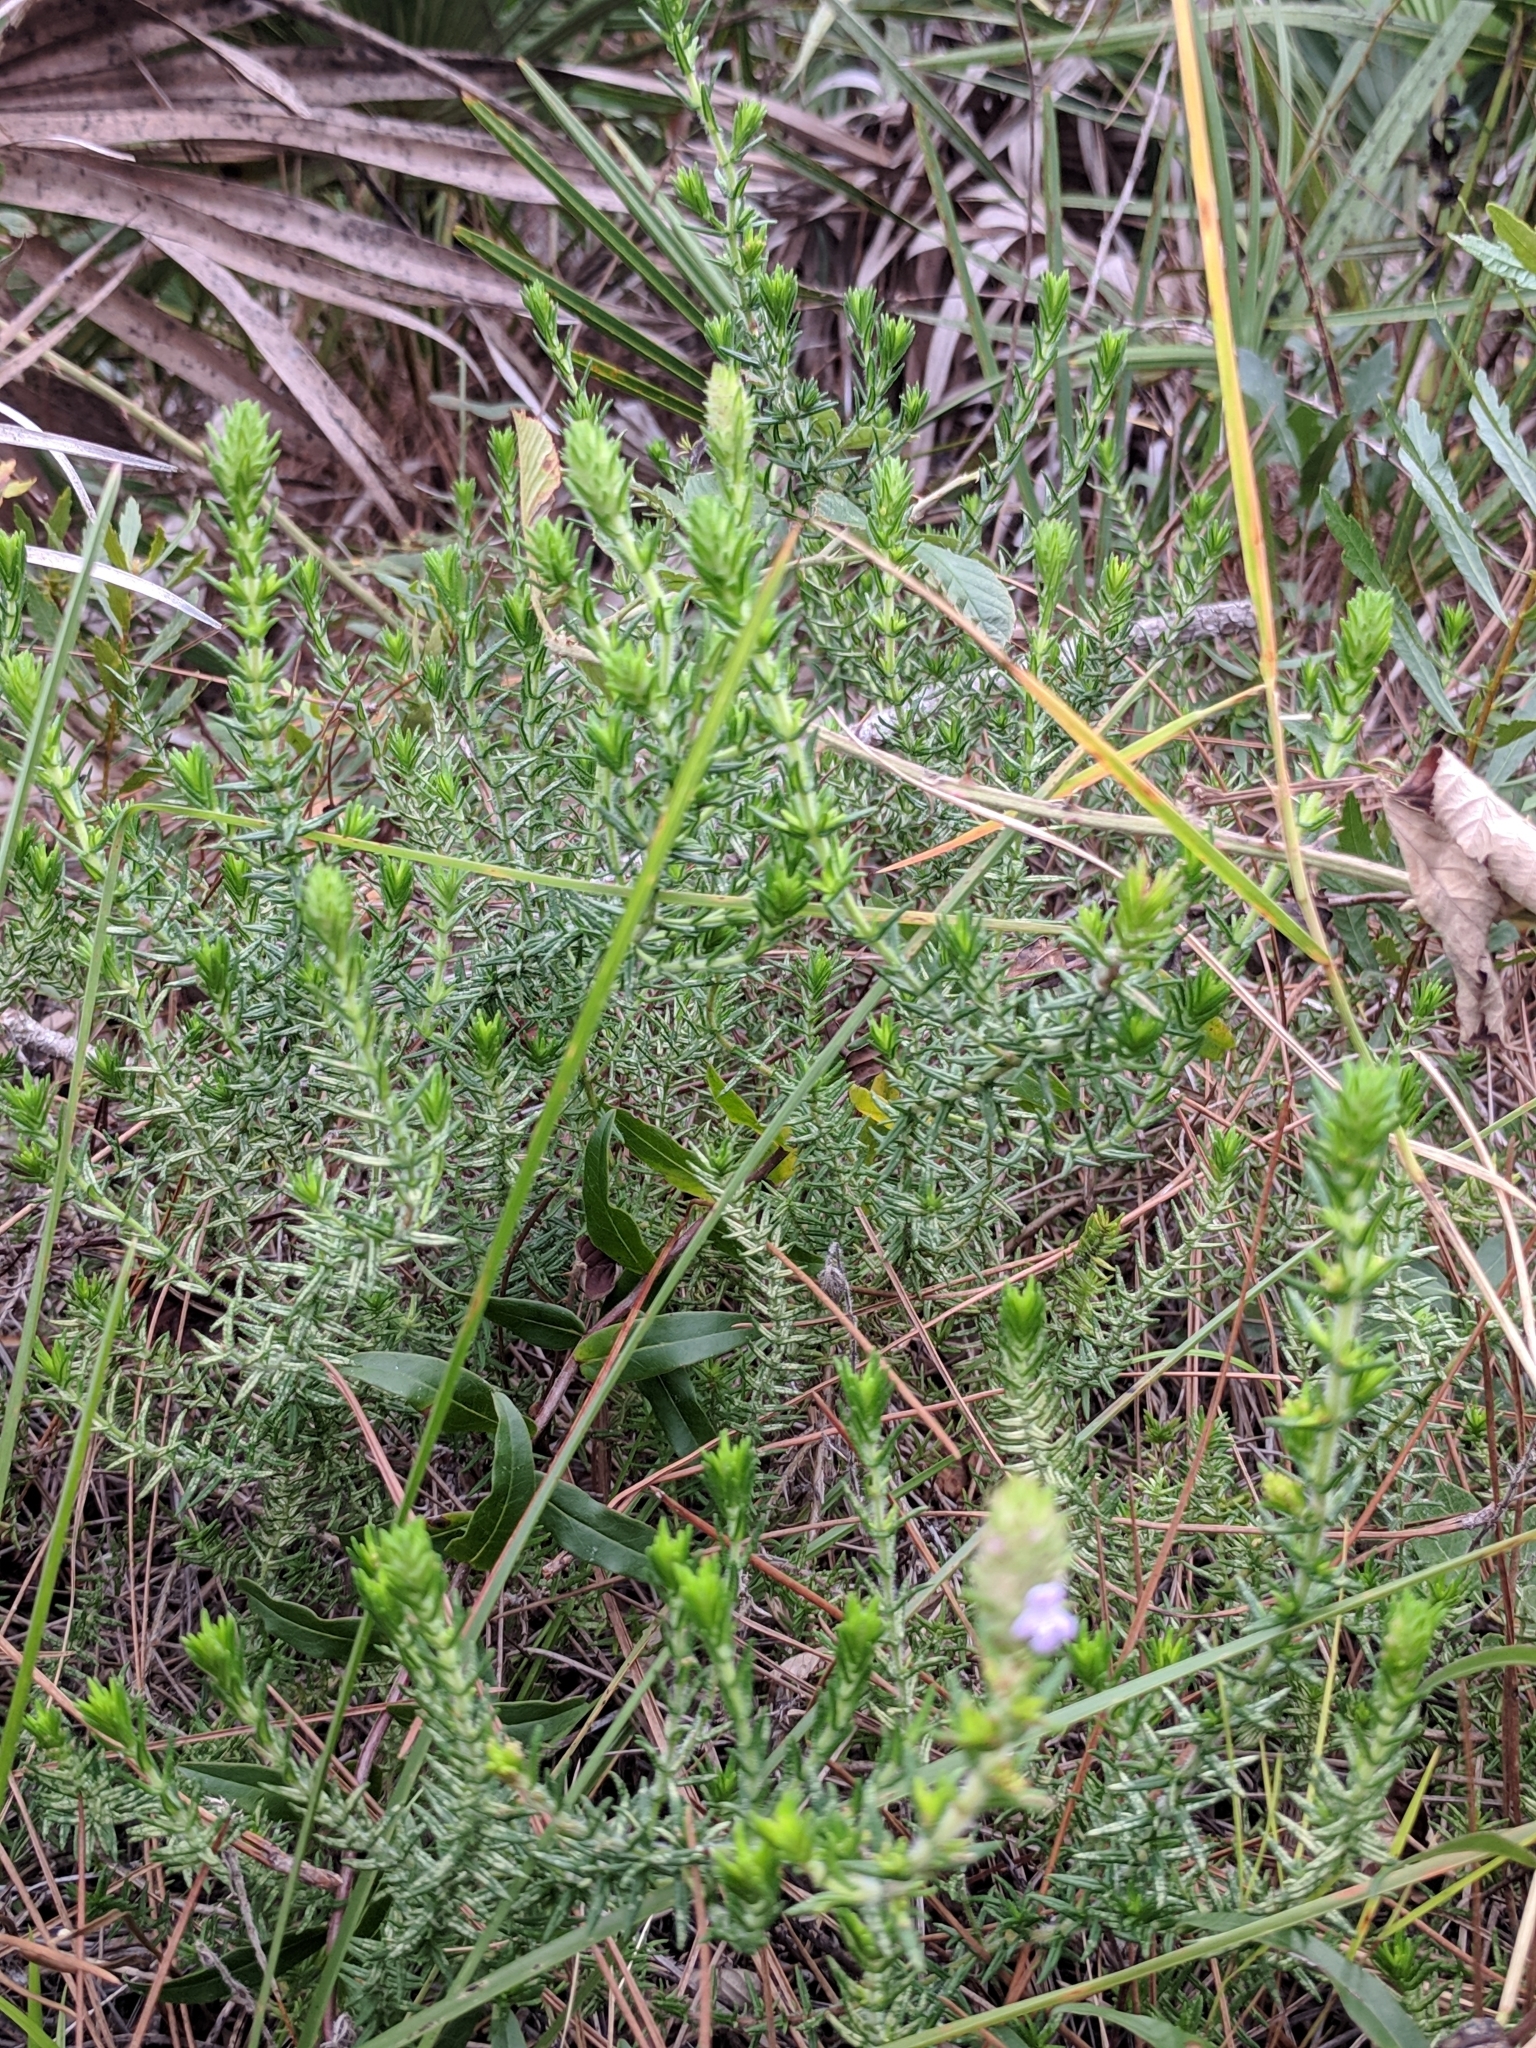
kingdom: Plantae
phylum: Tracheophyta
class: Magnoliopsida
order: Lamiales
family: Lamiaceae
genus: Piloblephis
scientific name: Piloblephis rigida
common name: Wild pennyroyal
